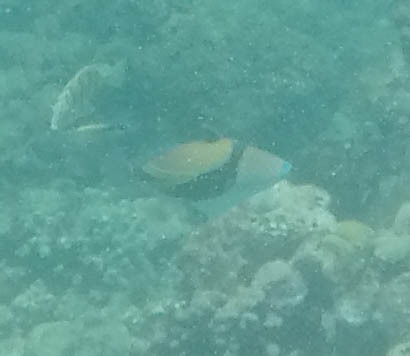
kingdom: Animalia
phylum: Chordata
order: Tetraodontiformes
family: Balistidae
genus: Rhinecanthus
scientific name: Rhinecanthus rectangulus
